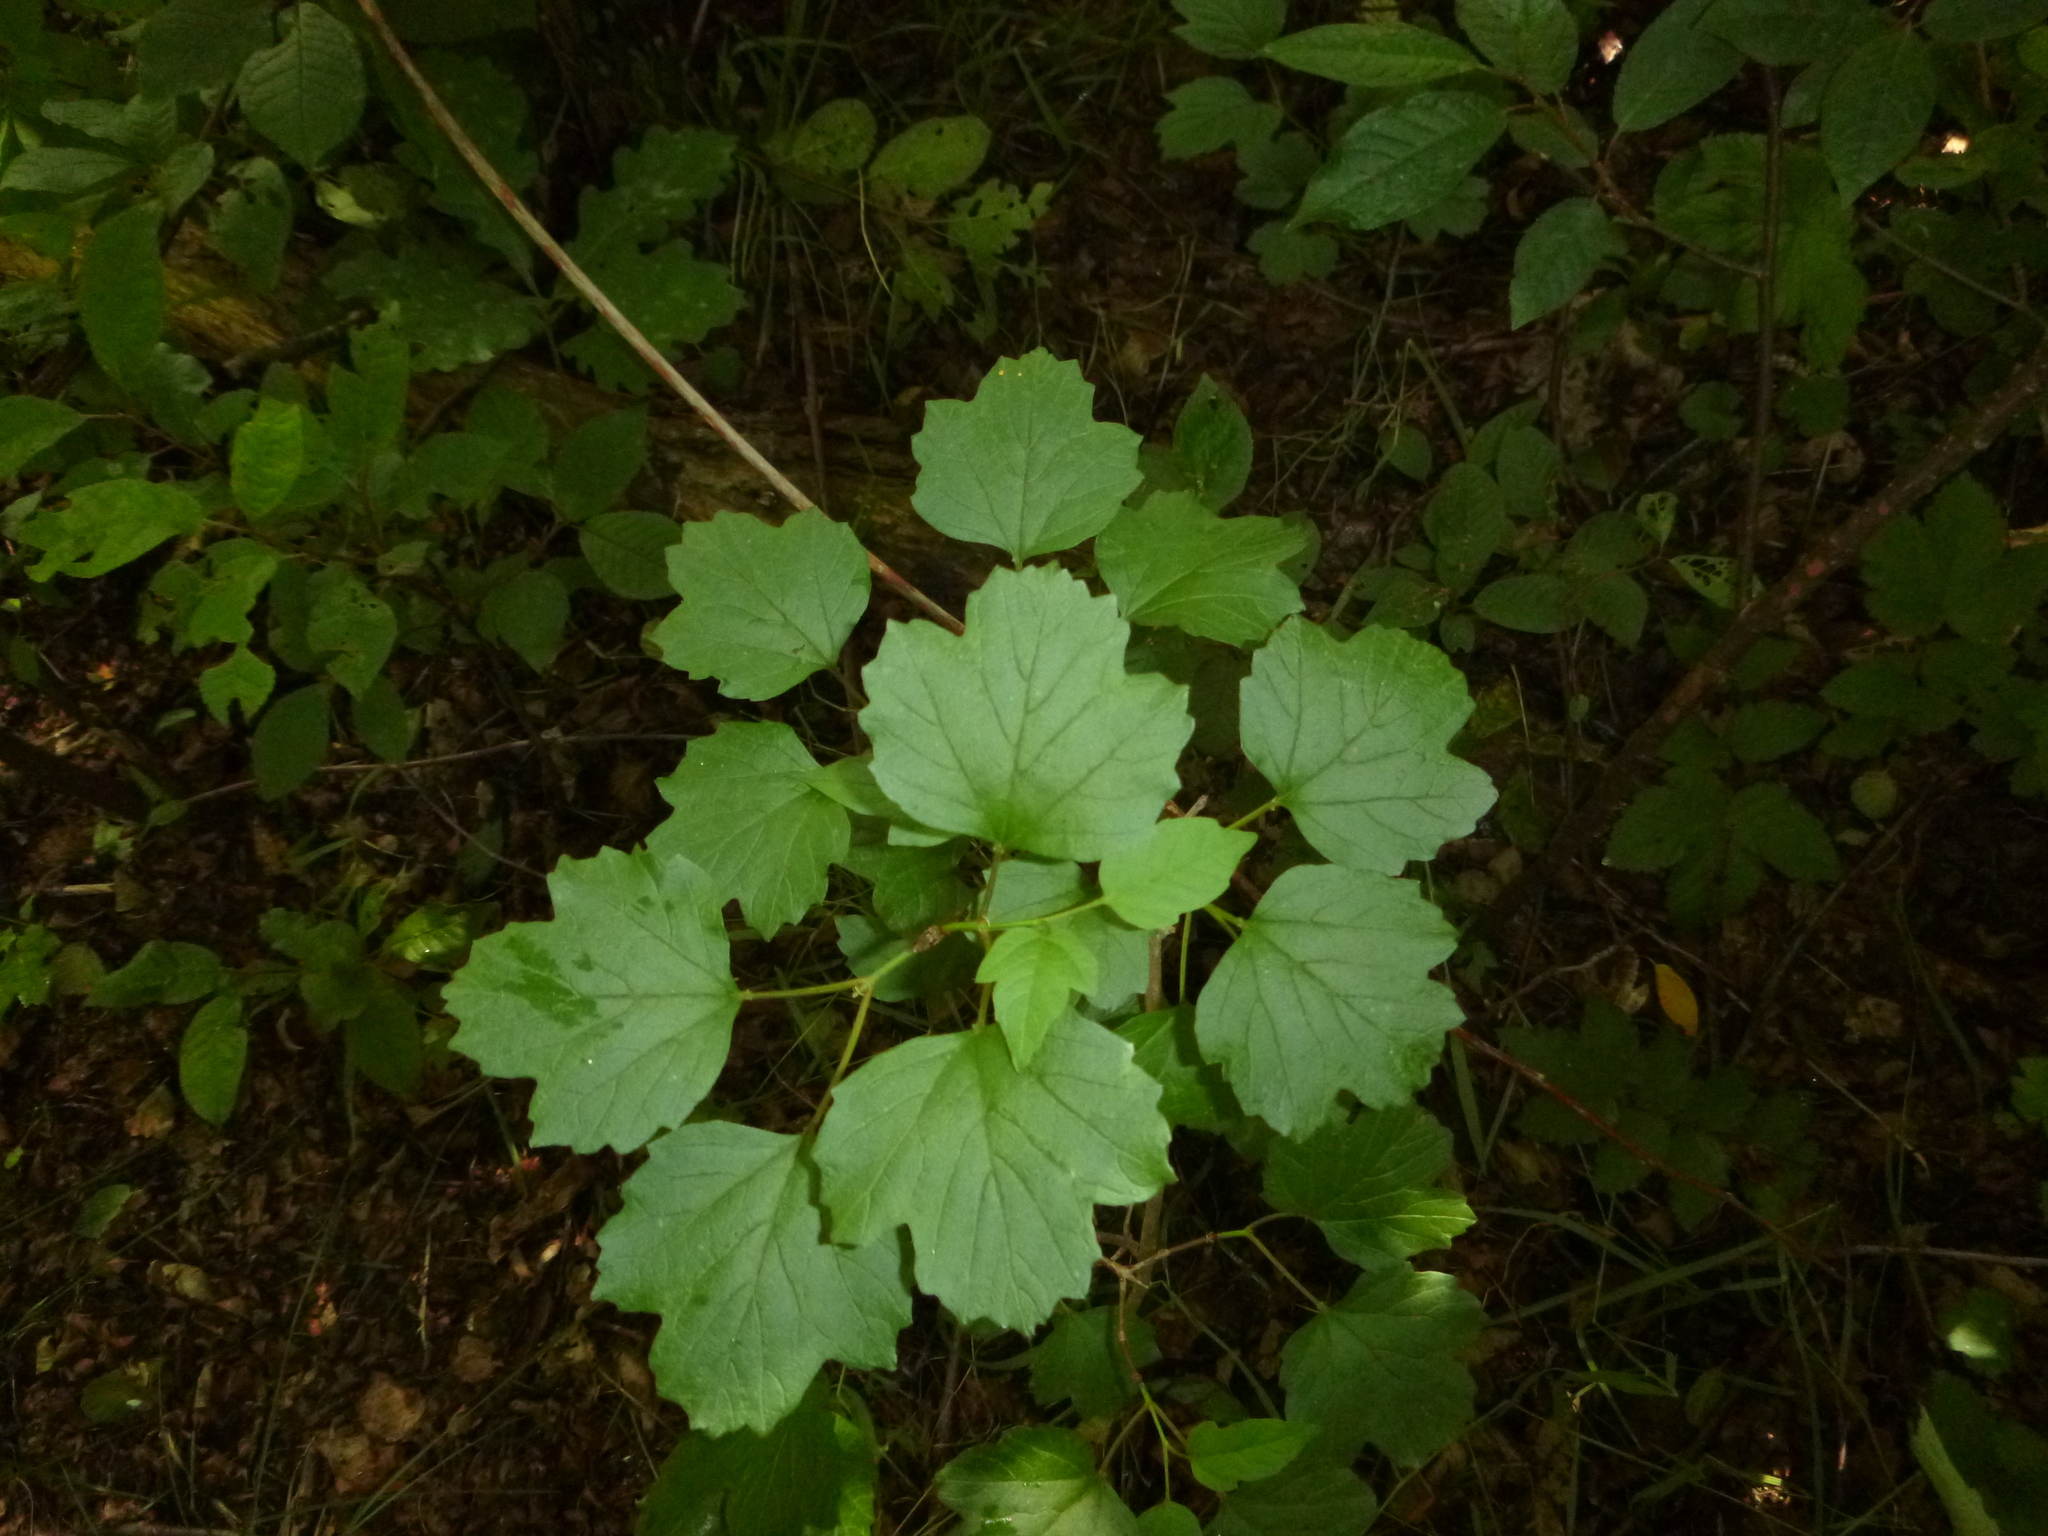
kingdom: Plantae
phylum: Tracheophyta
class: Magnoliopsida
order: Dipsacales
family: Viburnaceae
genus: Viburnum
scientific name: Viburnum opulus
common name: Guelder-rose
